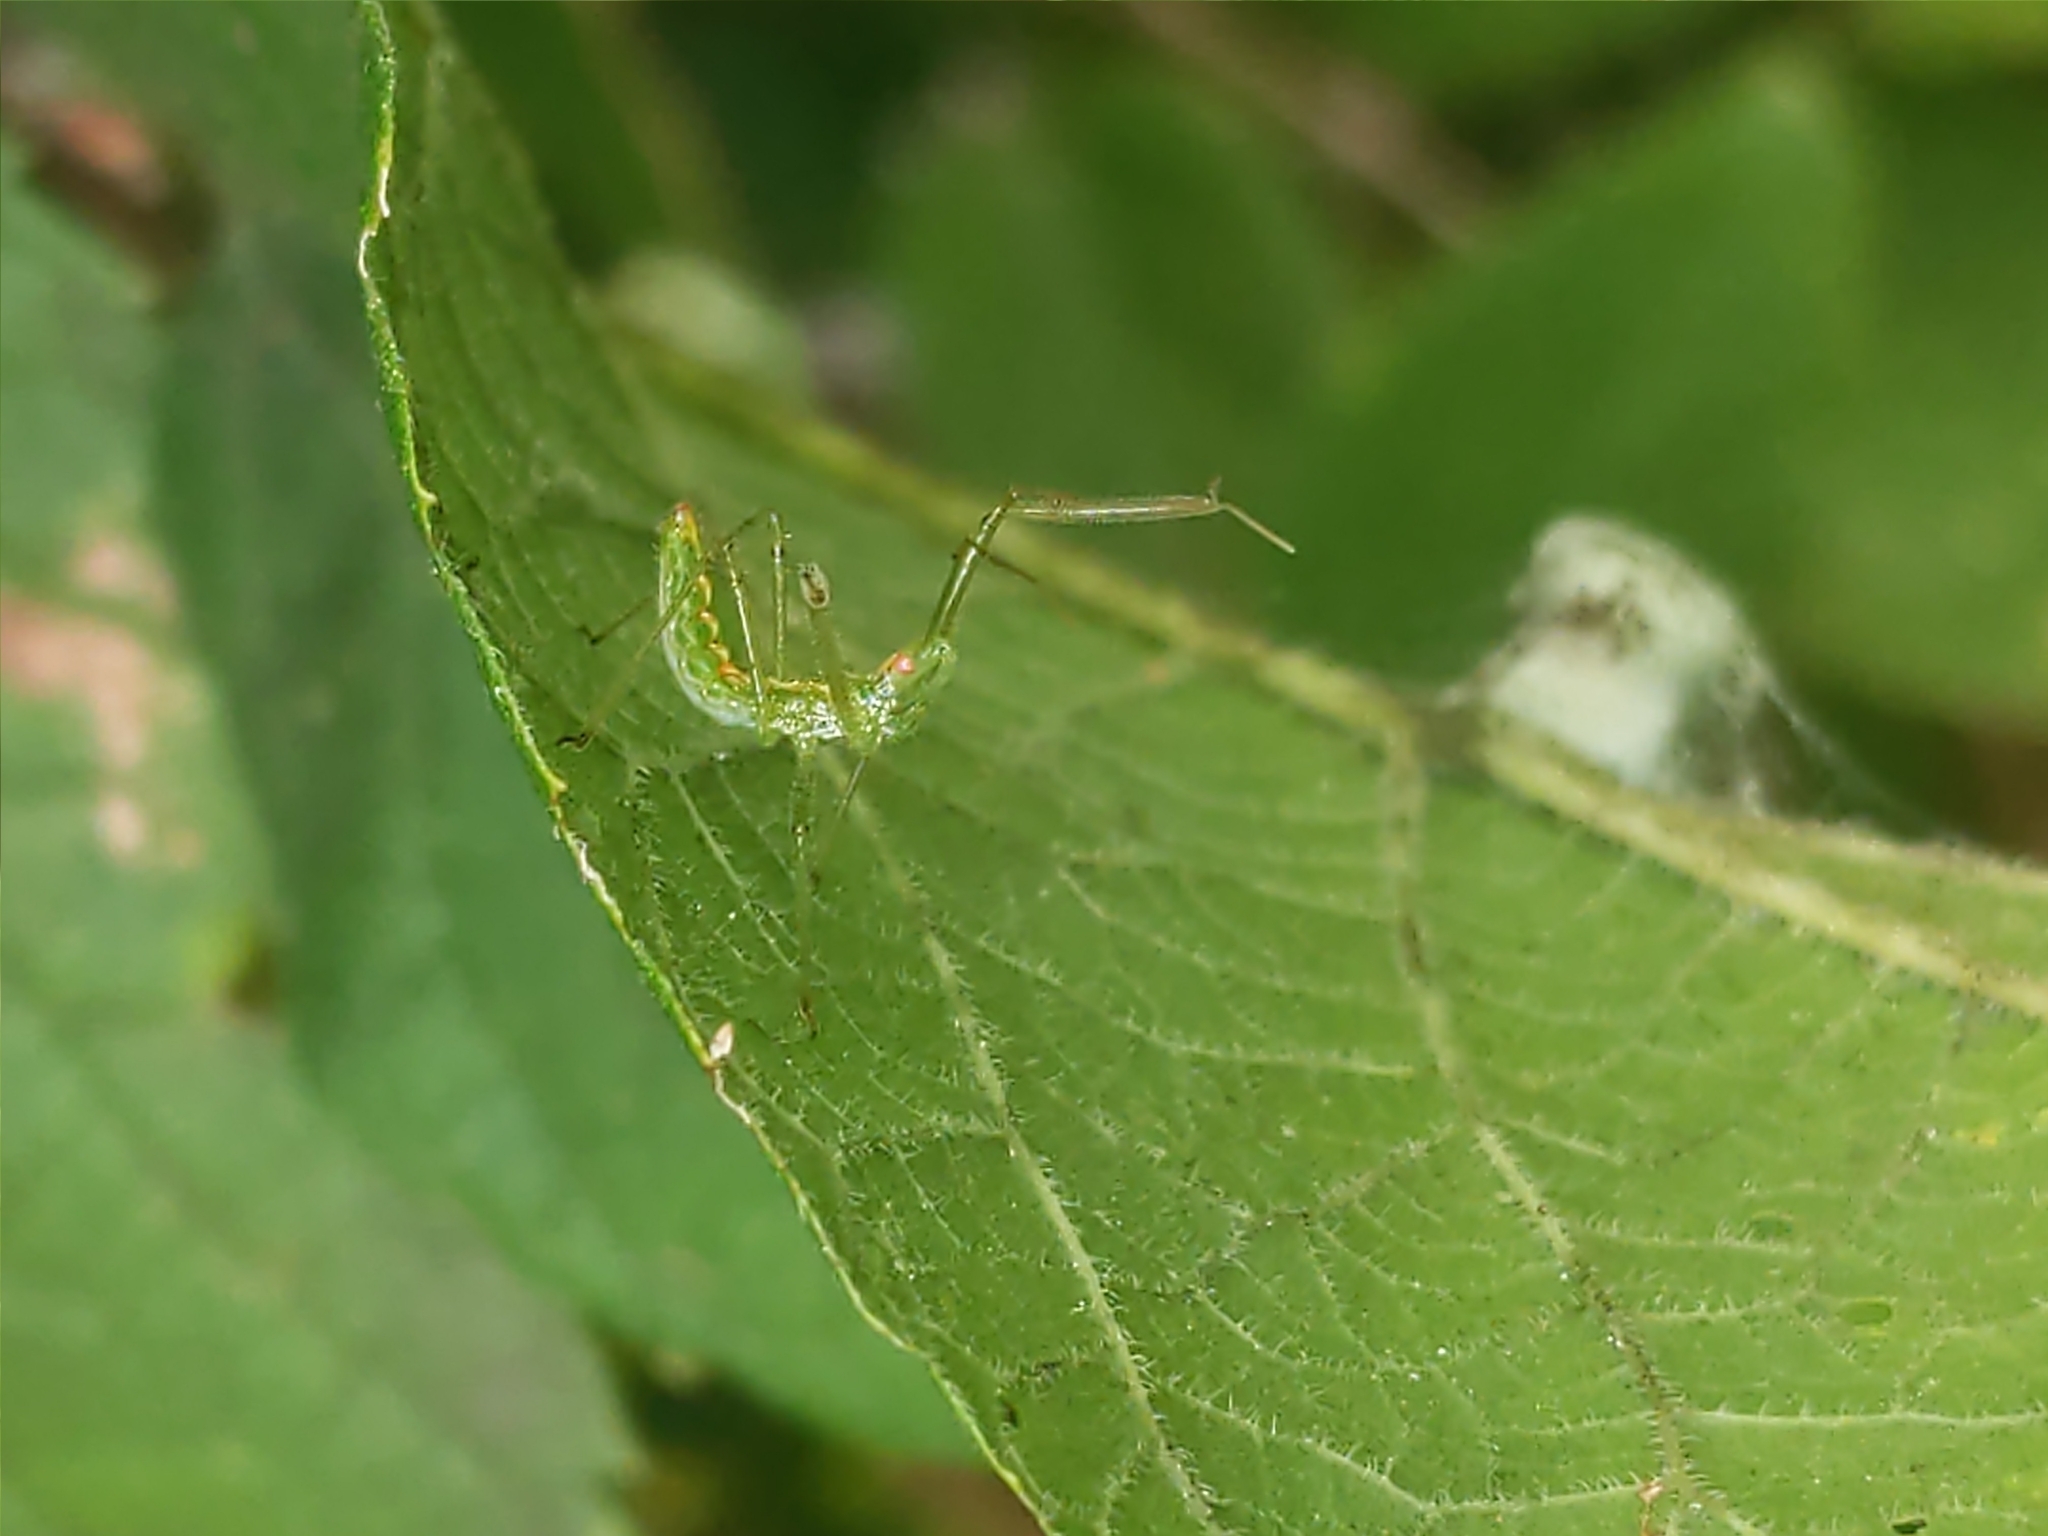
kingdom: Animalia
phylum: Arthropoda
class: Insecta
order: Hemiptera
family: Reduviidae
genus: Zelus
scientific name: Zelus luridus
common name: Pale green assassin bug
